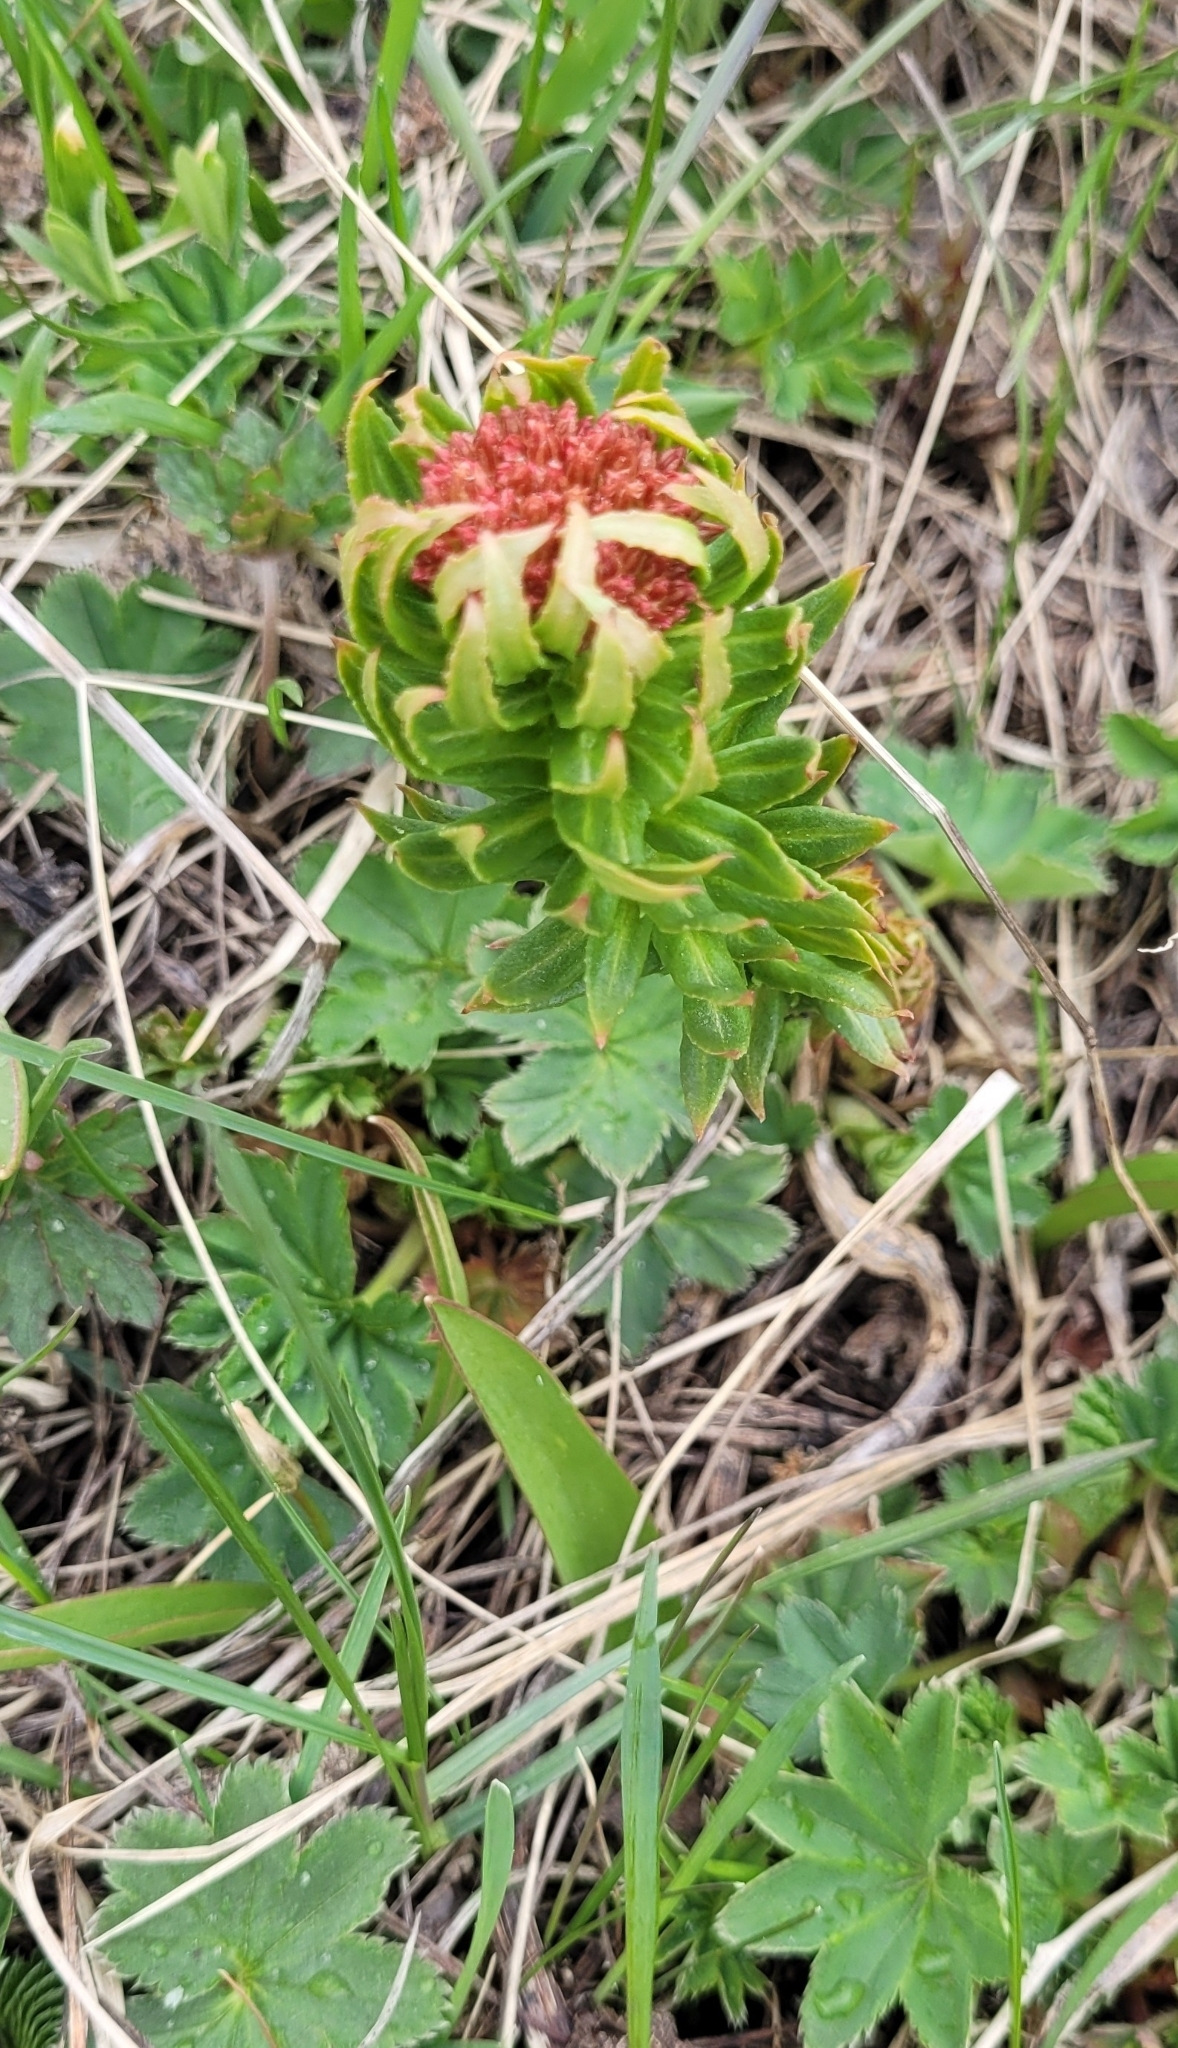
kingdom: Plantae
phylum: Tracheophyta
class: Magnoliopsida
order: Saxifragales
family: Crassulaceae
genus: Rhodiola
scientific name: Rhodiola kirilowii
